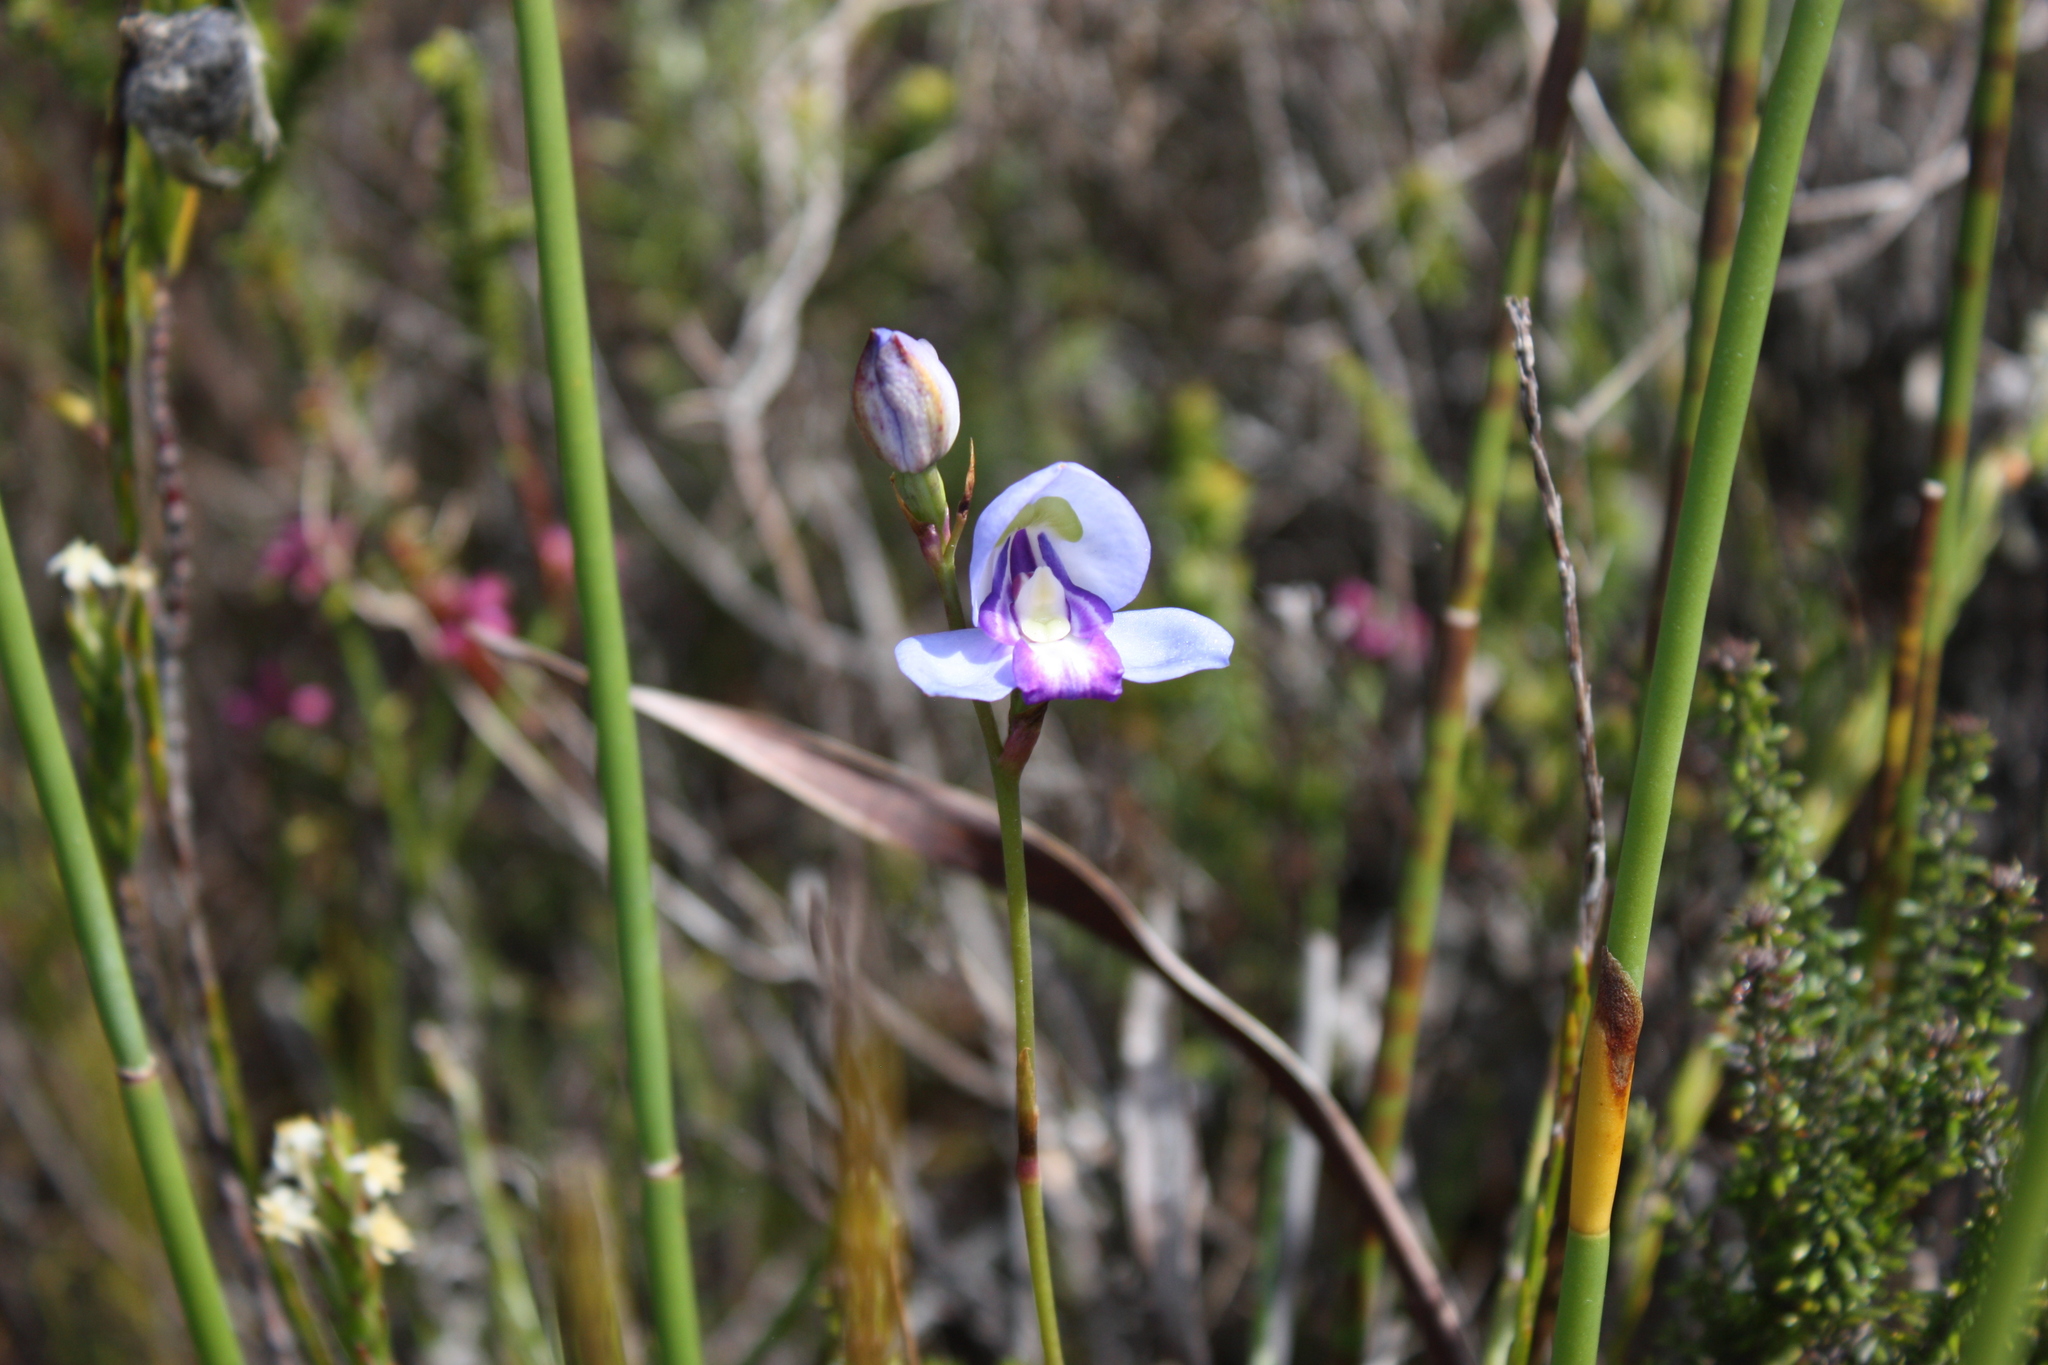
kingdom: Plantae
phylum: Tracheophyta
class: Liliopsida
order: Asparagales
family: Orchidaceae
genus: Disa
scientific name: Disa graminifolia
